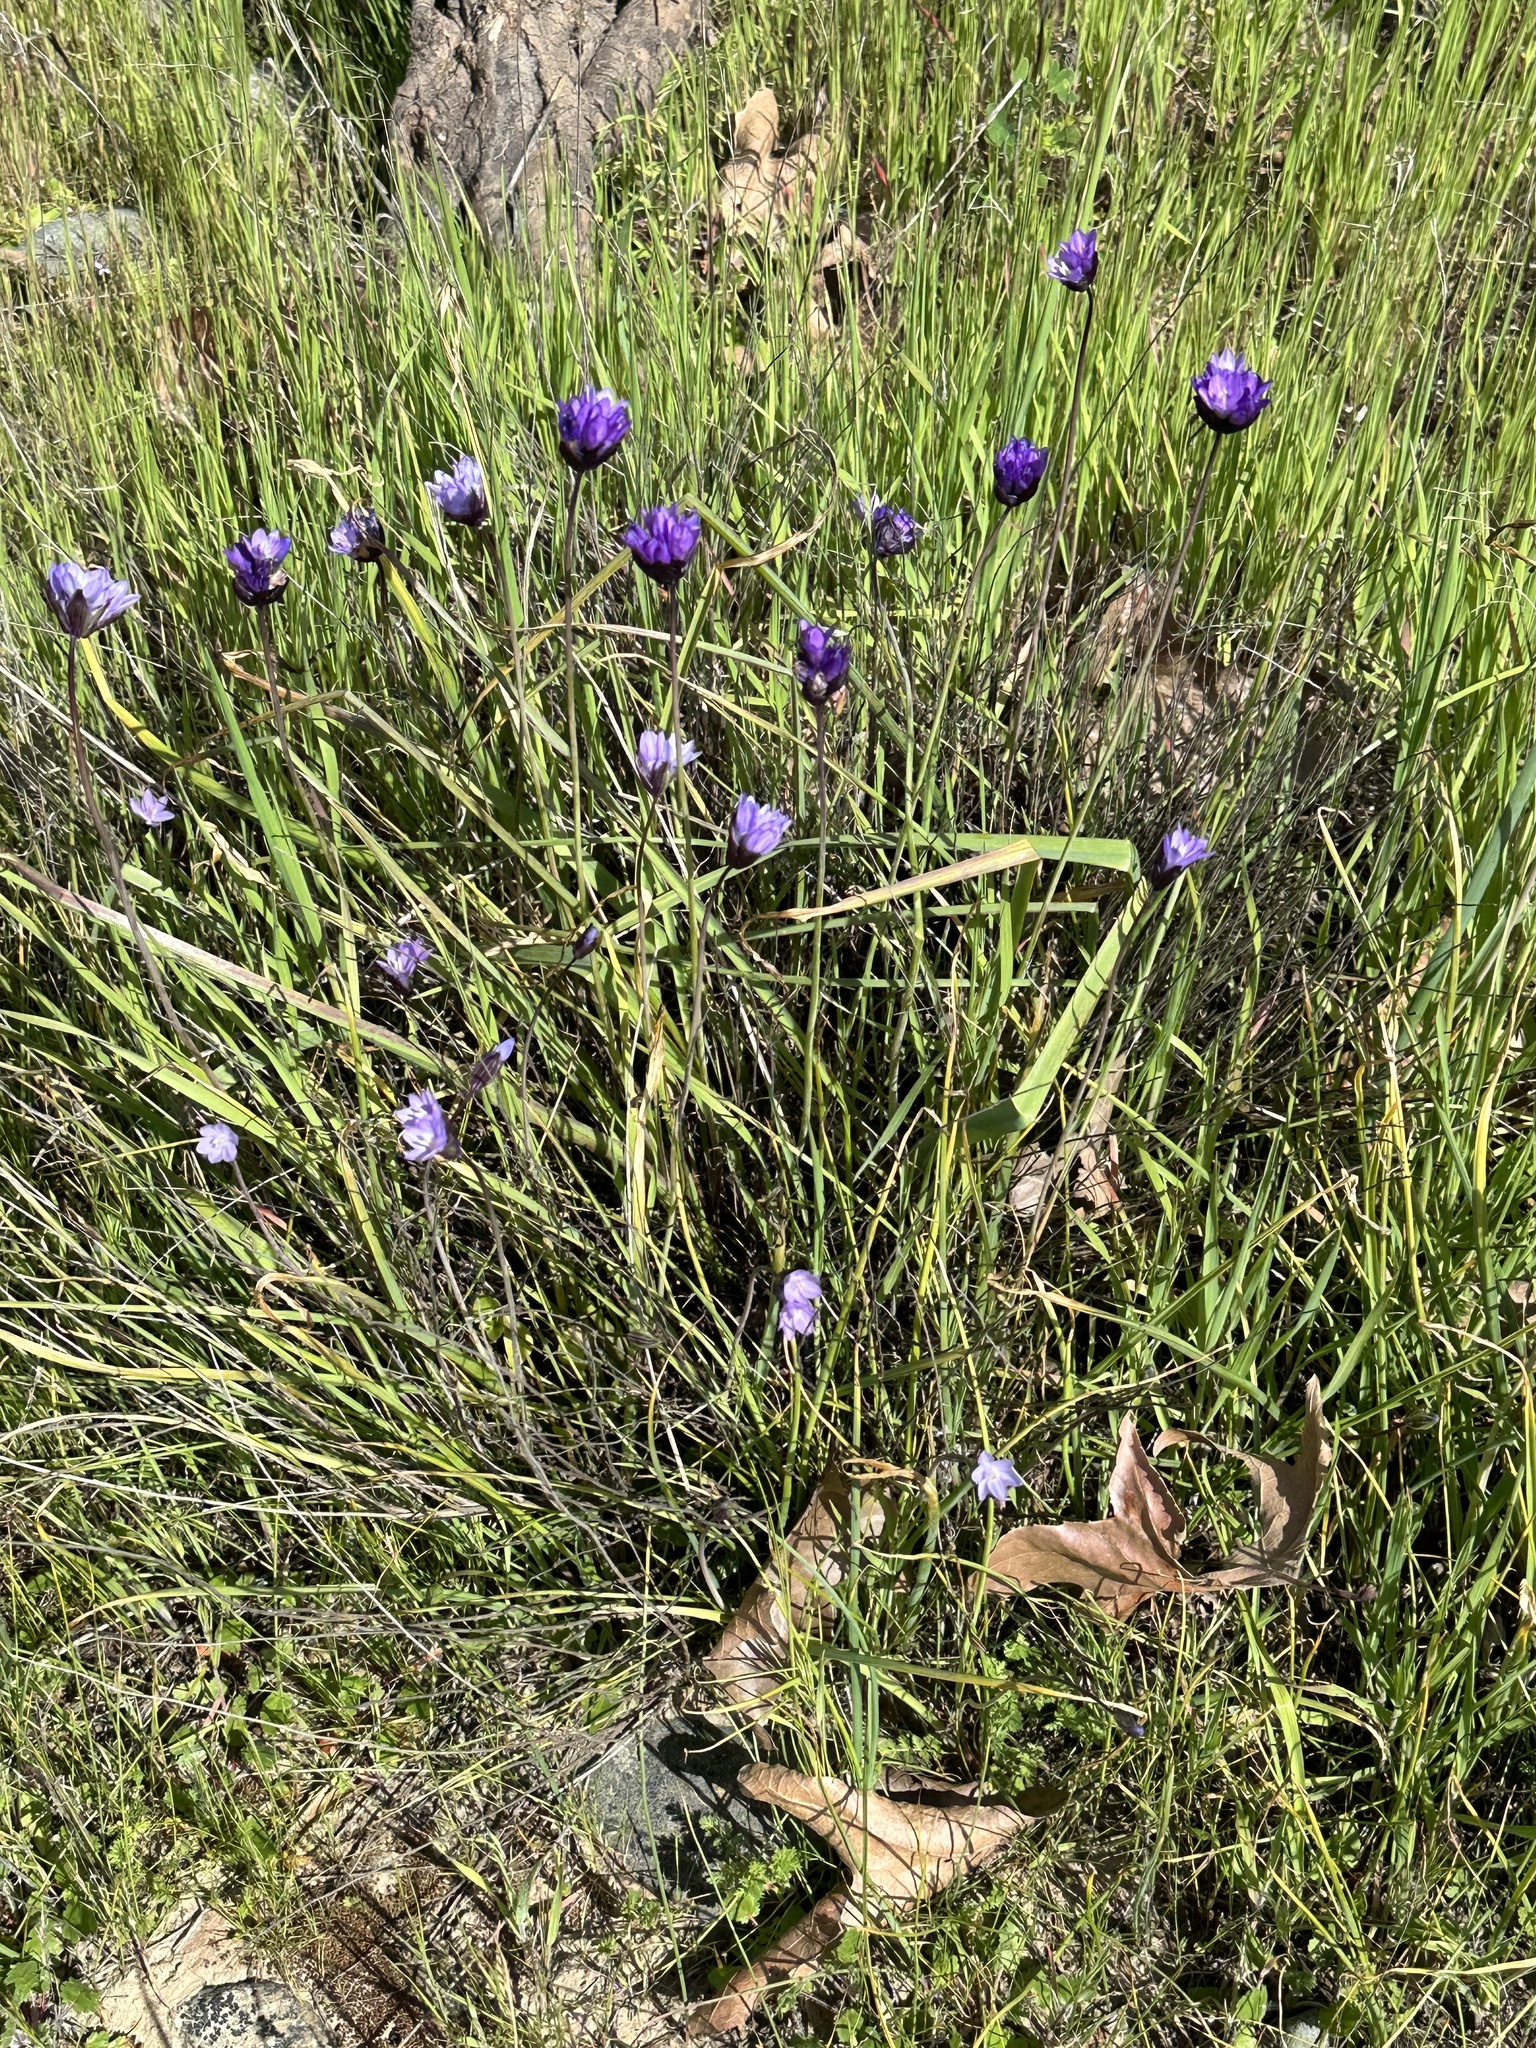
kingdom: Plantae
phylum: Tracheophyta
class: Liliopsida
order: Asparagales
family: Asparagaceae
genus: Dipterostemon
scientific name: Dipterostemon capitatus
